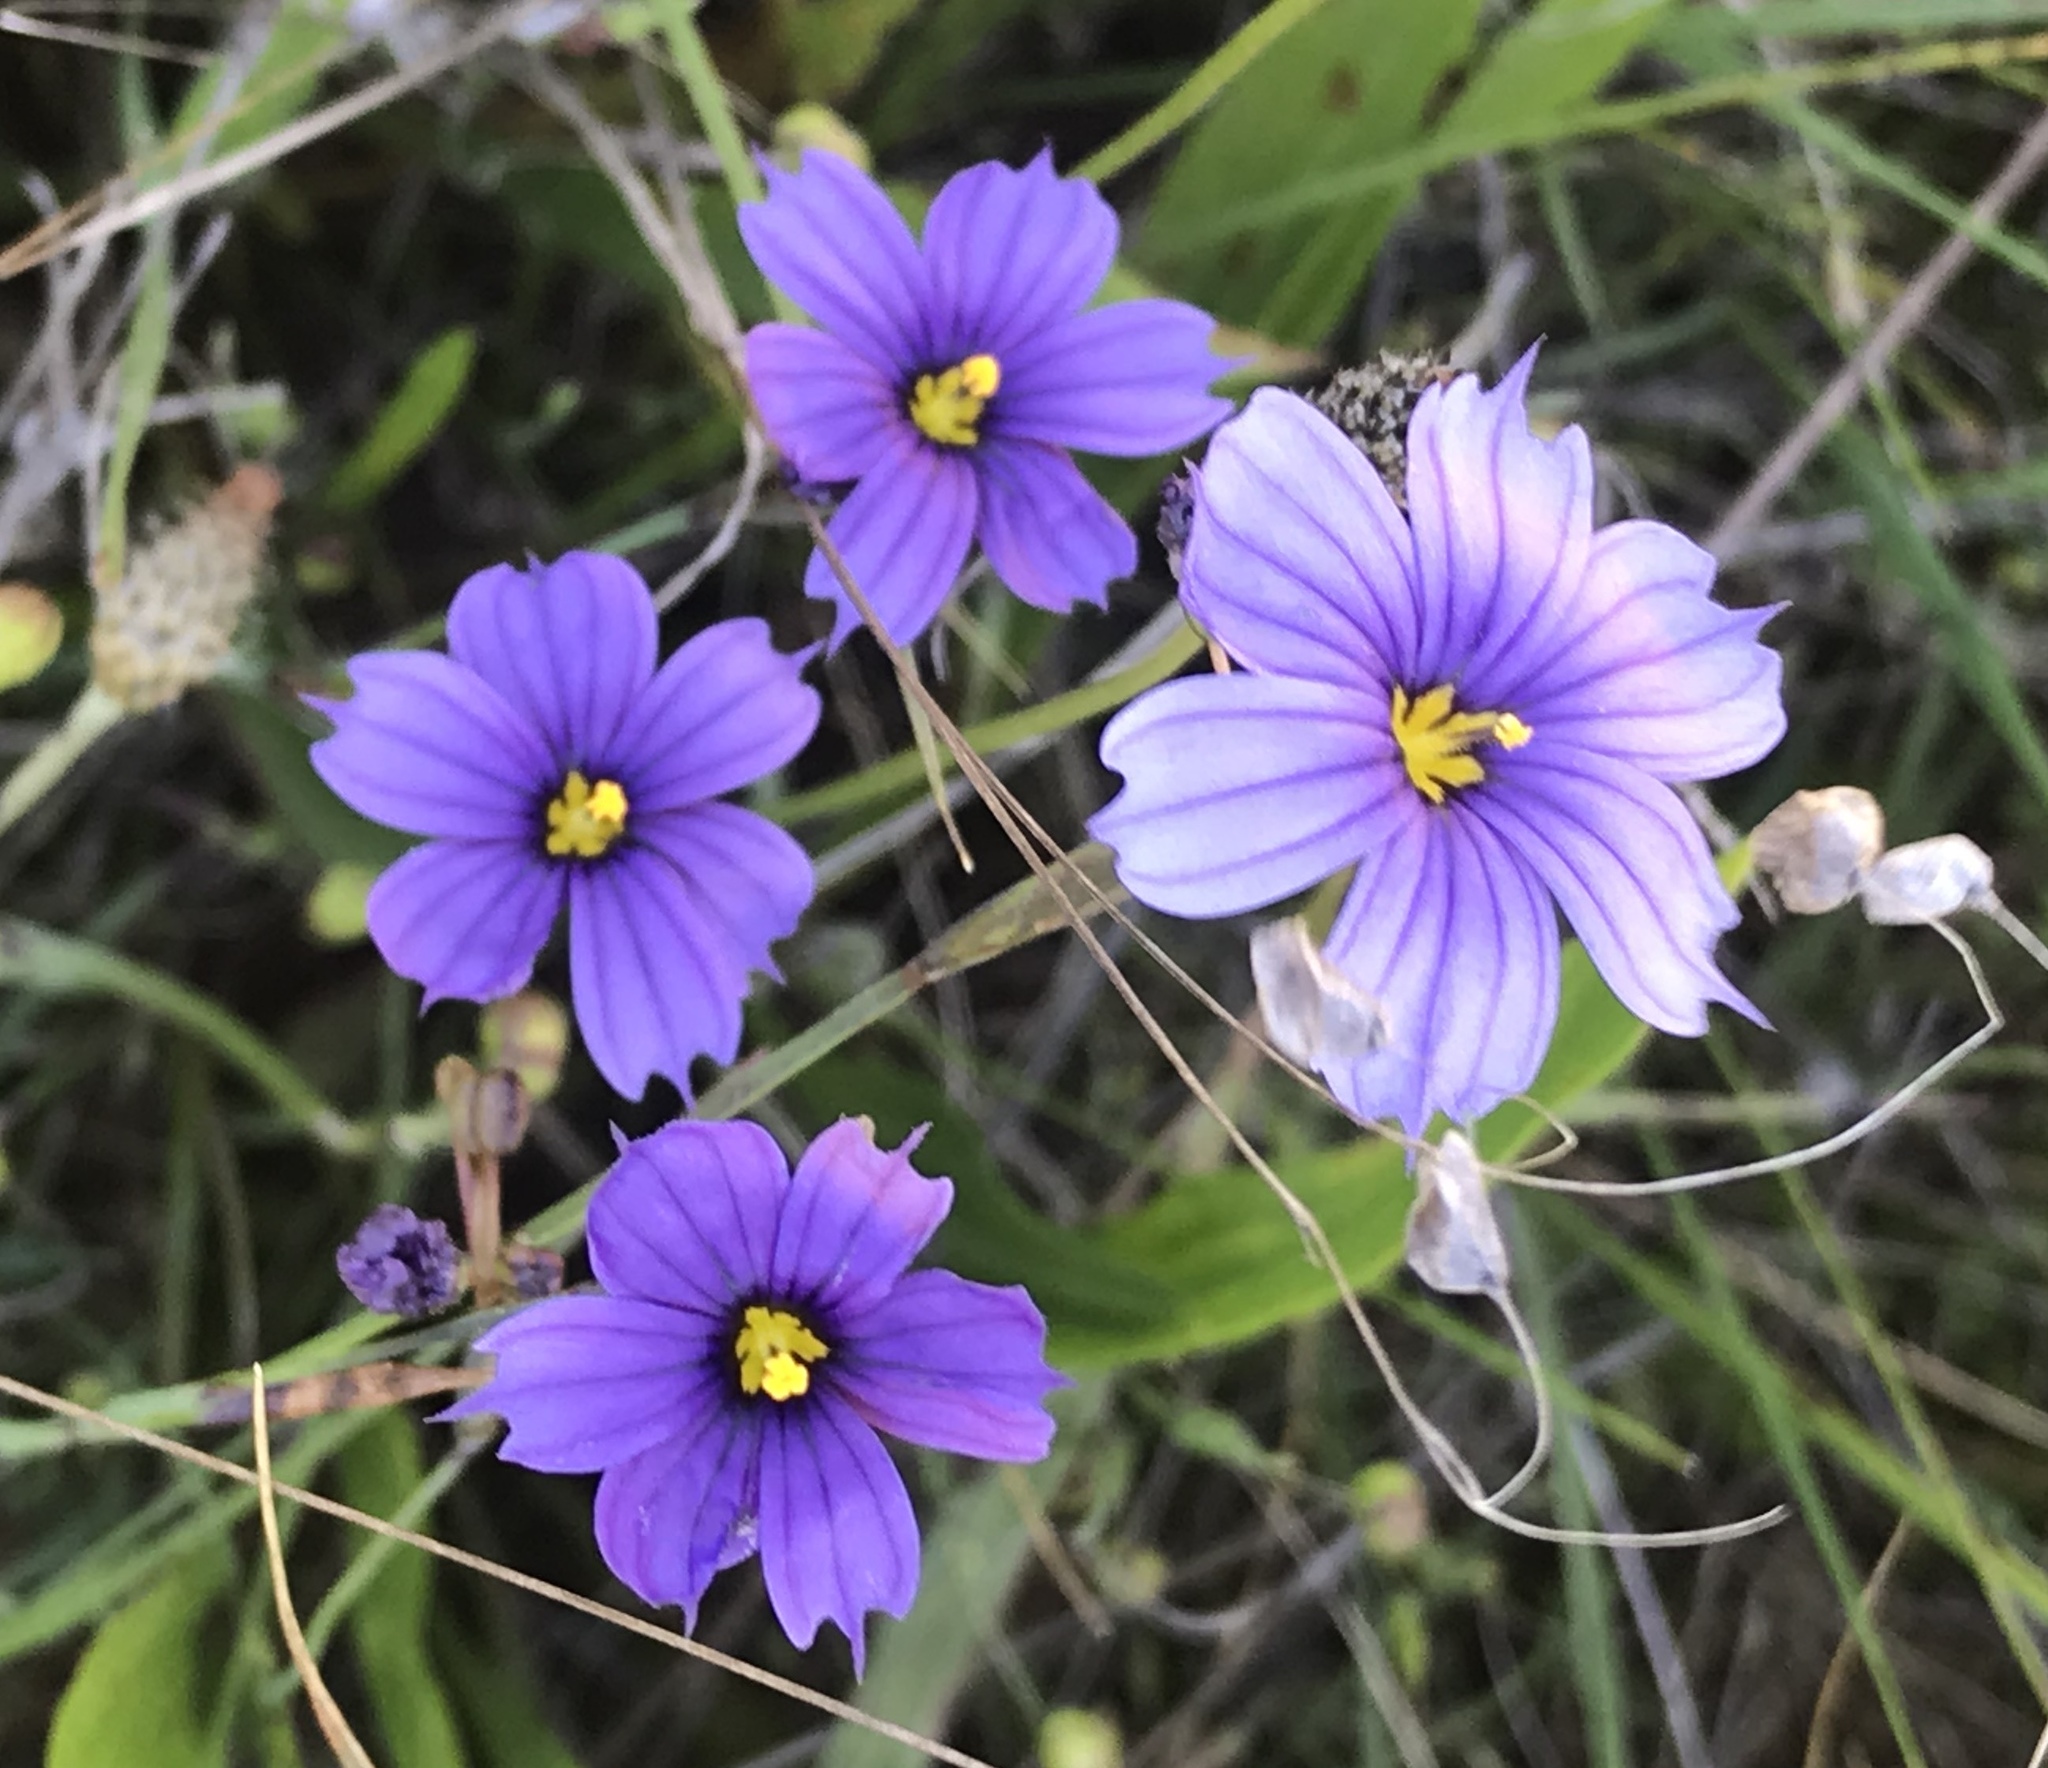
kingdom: Plantae
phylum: Tracheophyta
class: Liliopsida
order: Asparagales
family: Iridaceae
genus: Sisyrinchium
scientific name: Sisyrinchium bellum
